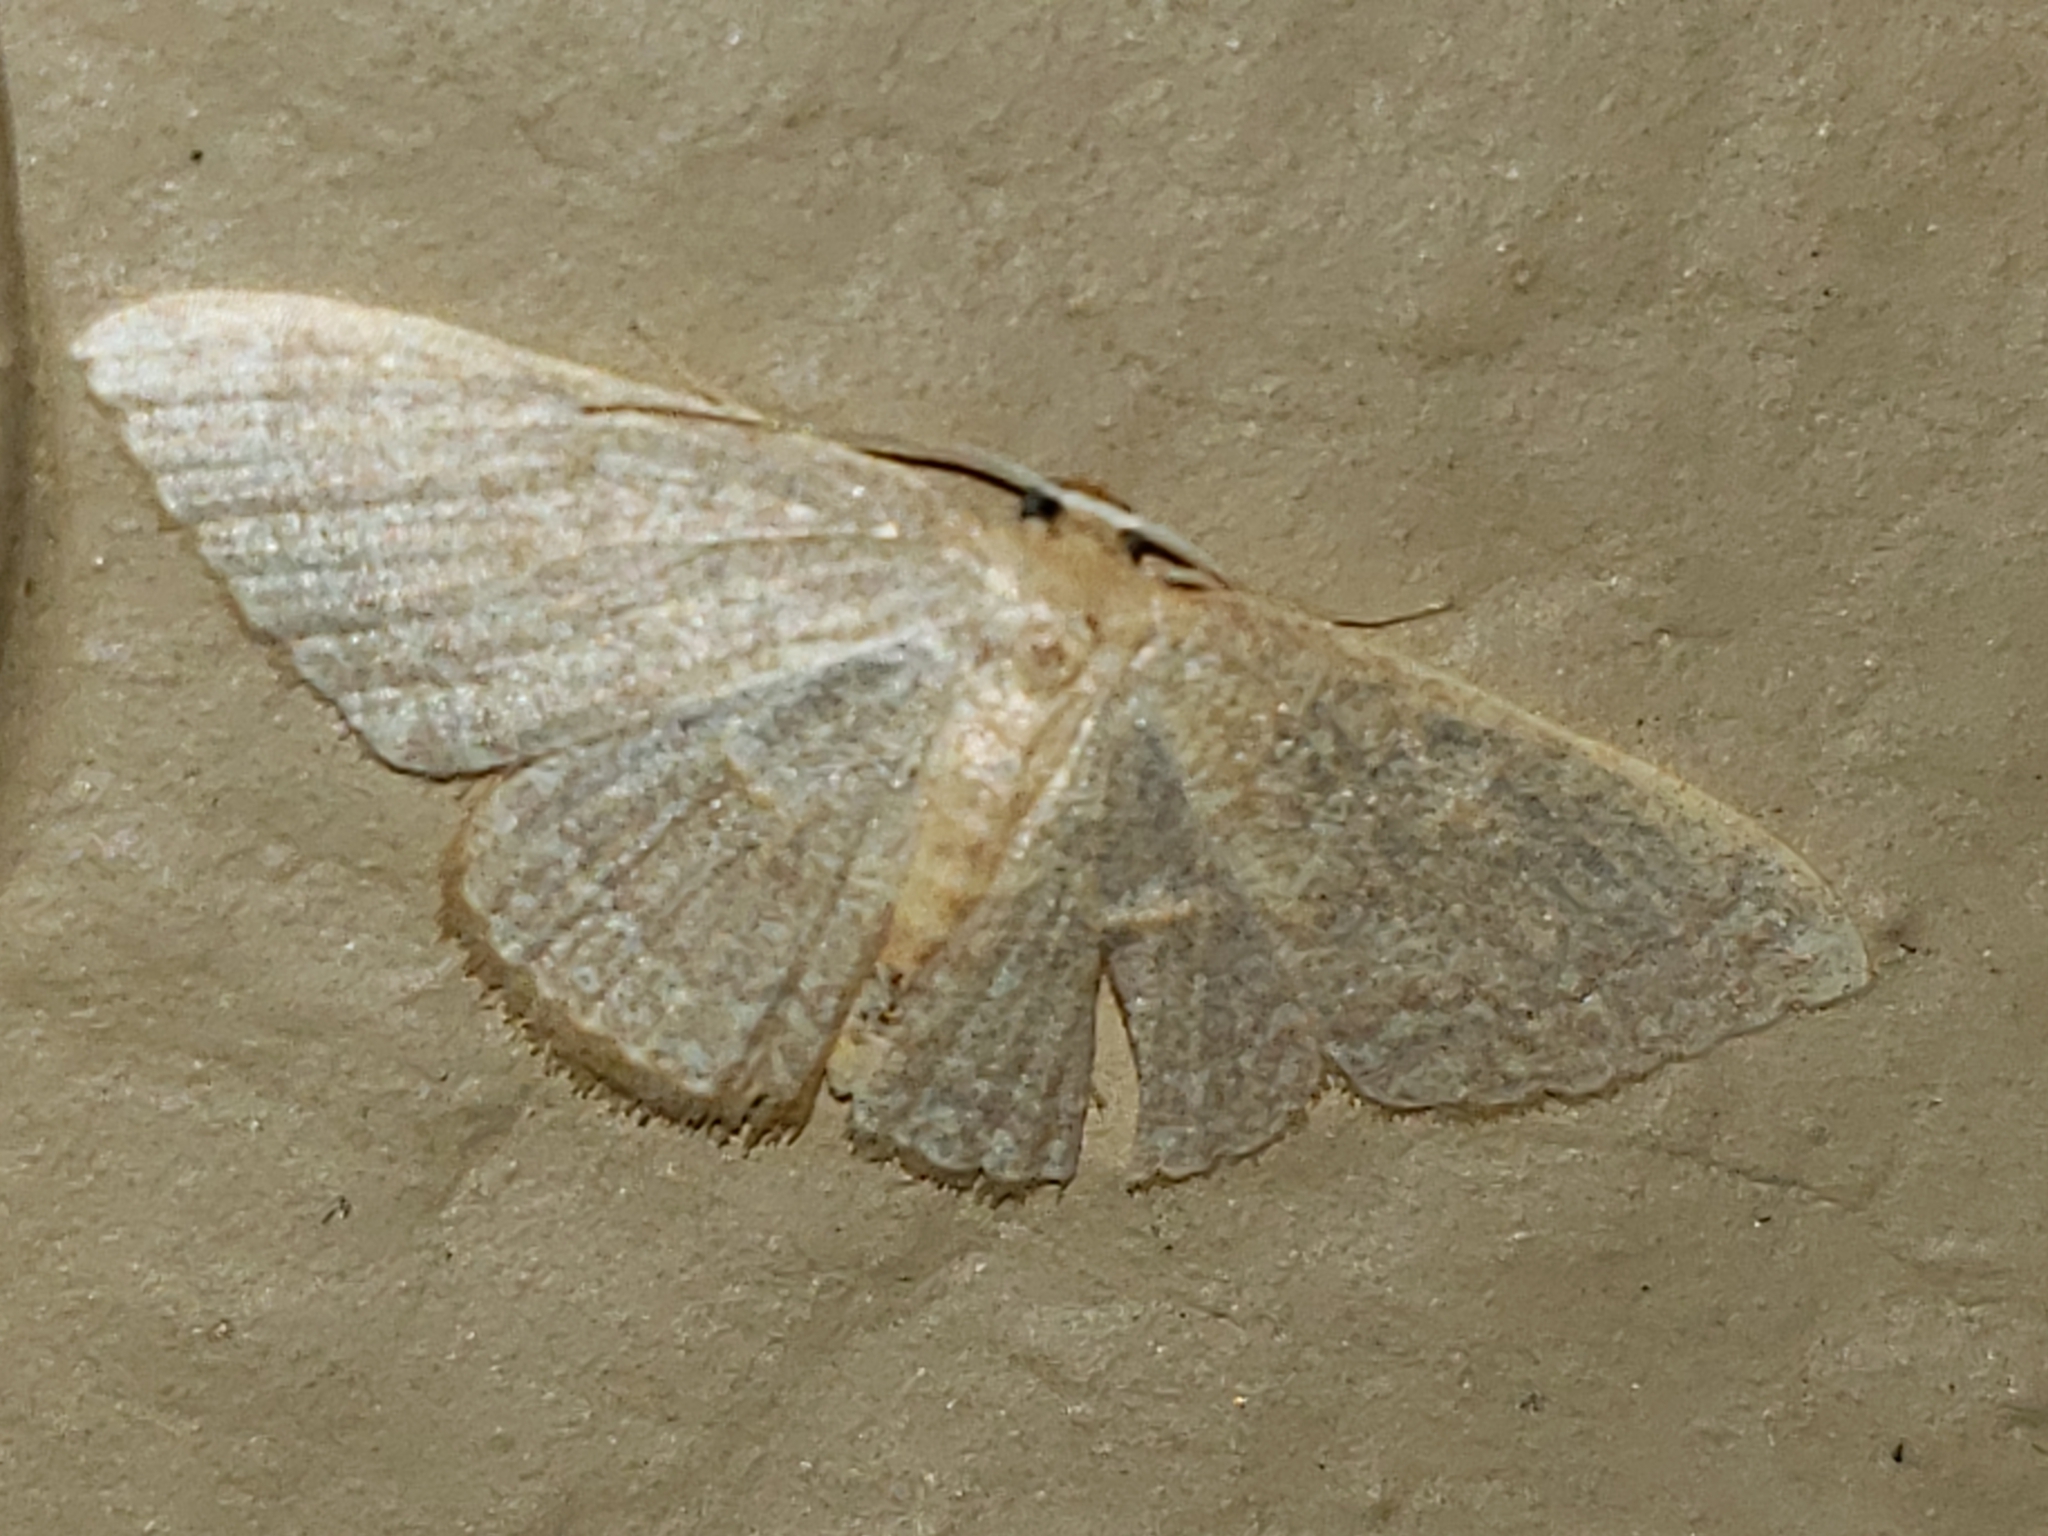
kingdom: Animalia
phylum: Arthropoda
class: Insecta
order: Lepidoptera
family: Geometridae
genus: Pleuroprucha
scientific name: Pleuroprucha insulsaria
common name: Common tan wave
